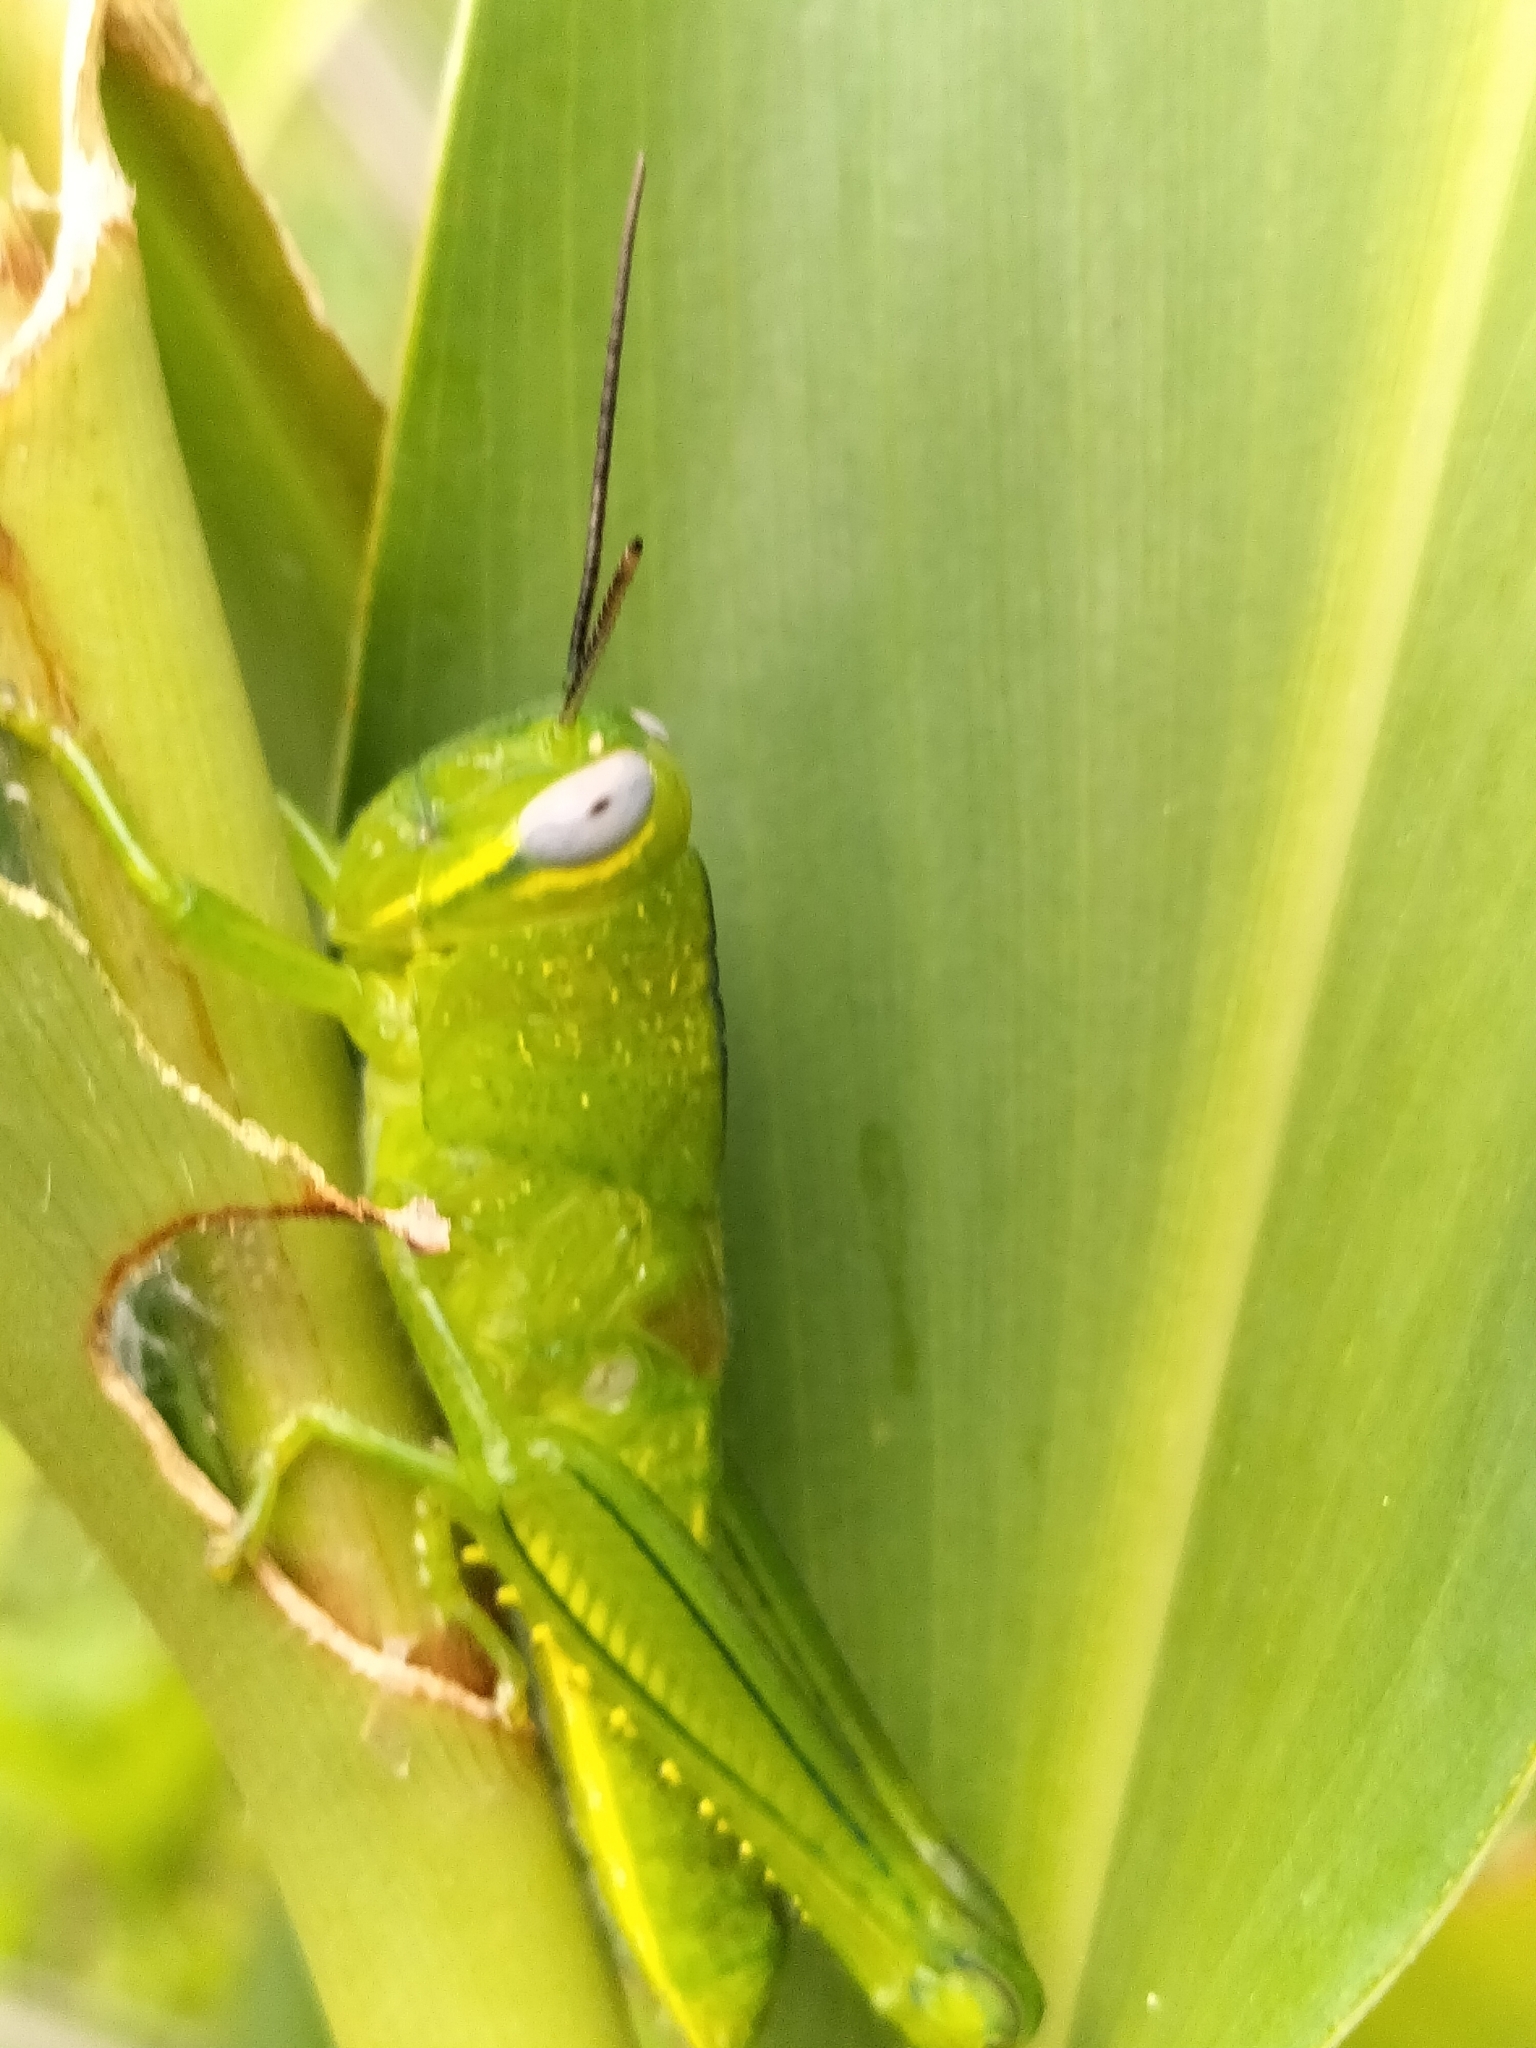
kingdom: Animalia
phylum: Arthropoda
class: Insecta
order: Orthoptera
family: Acrididae
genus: Valanga
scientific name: Valanga irregularis
